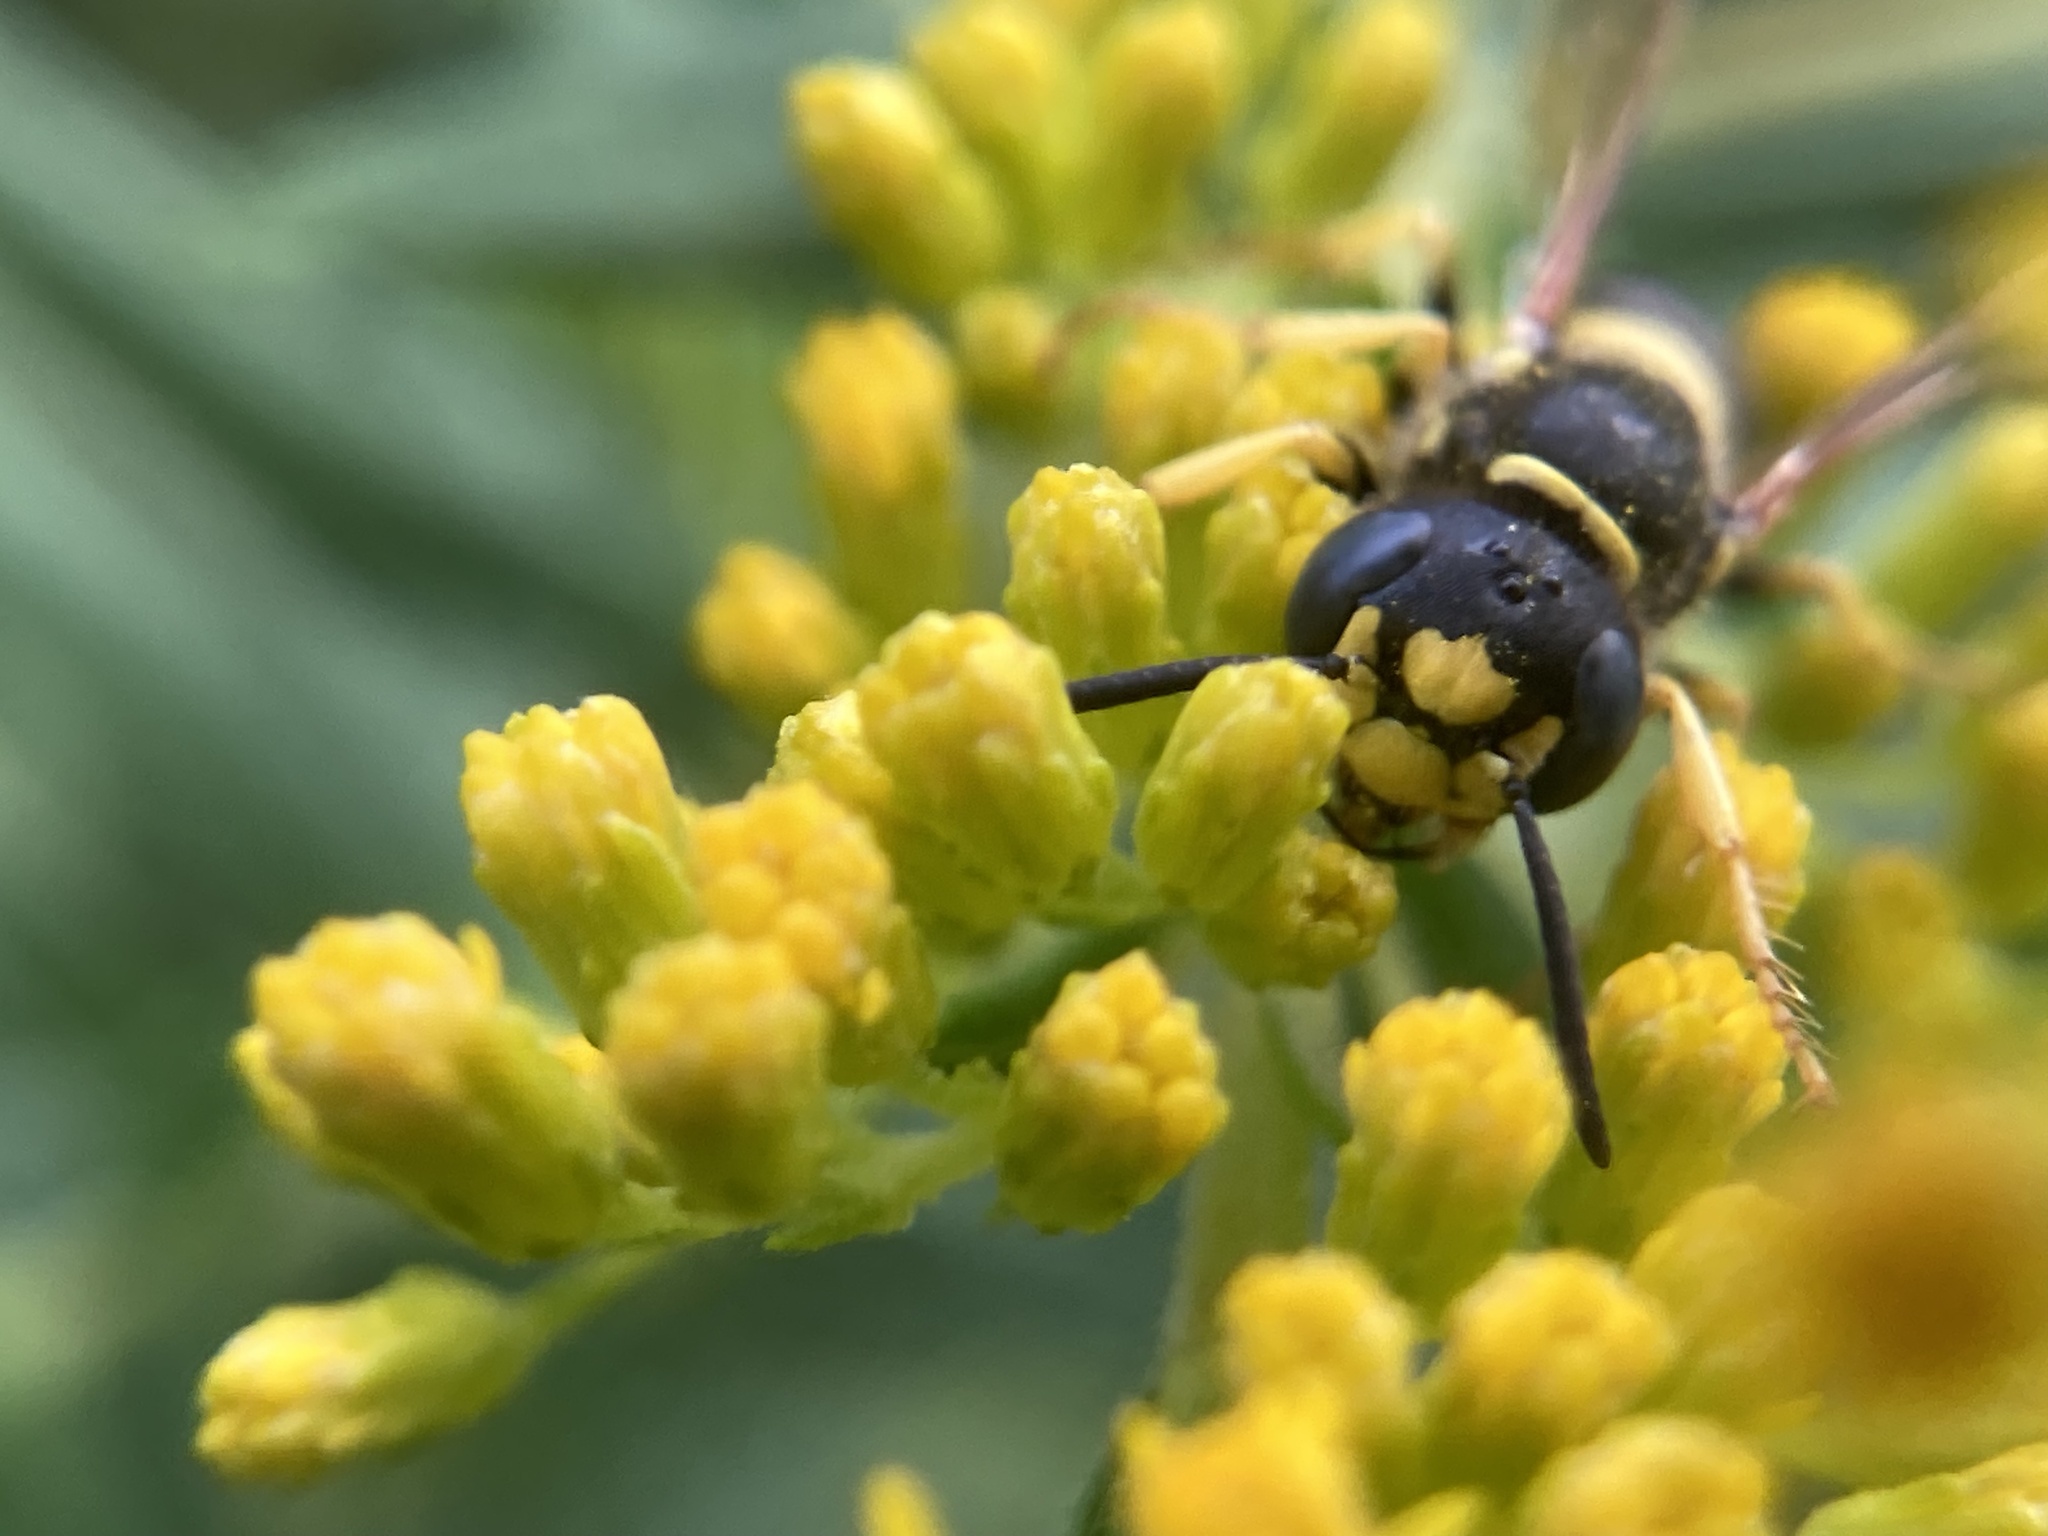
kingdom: Animalia
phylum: Arthropoda
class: Insecta
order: Hymenoptera
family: Crabronidae
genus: Philanthus
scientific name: Philanthus solivagus
